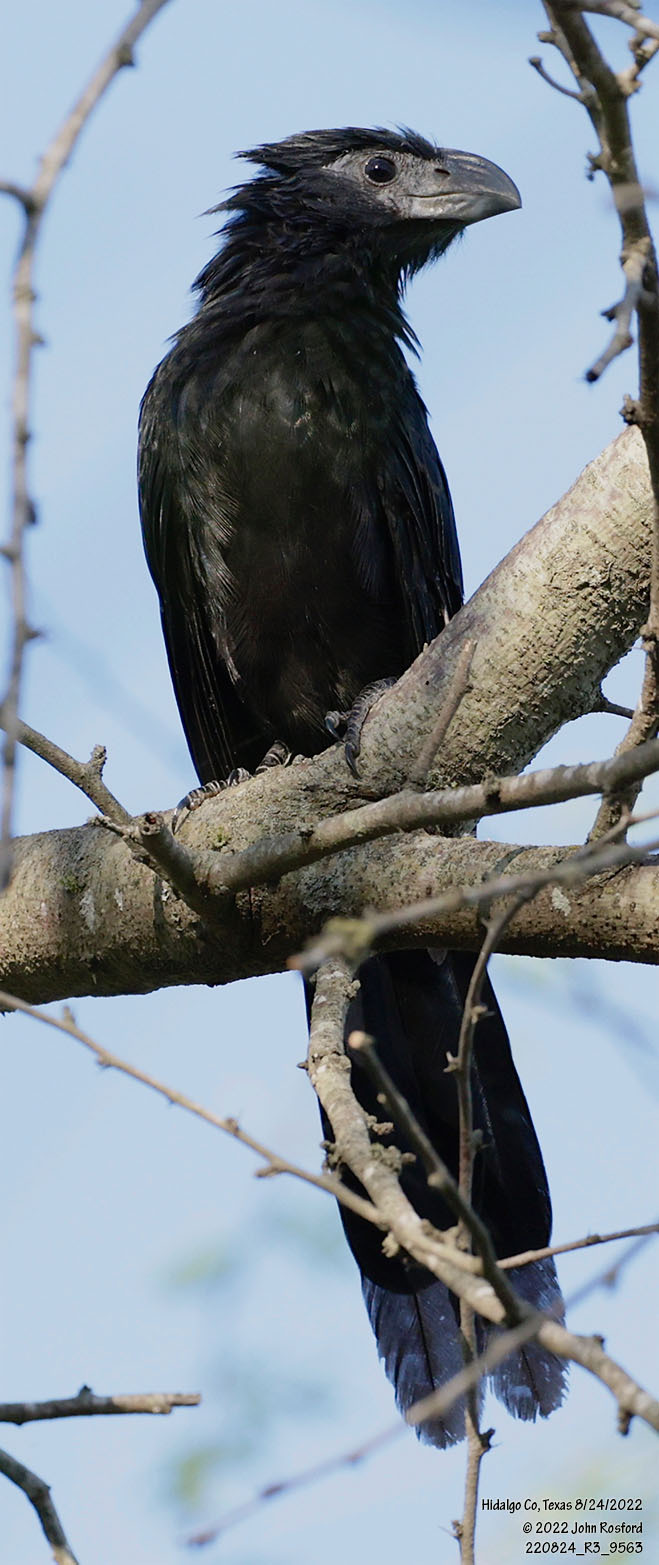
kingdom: Animalia
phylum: Chordata
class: Aves
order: Cuculiformes
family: Cuculidae
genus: Crotophaga
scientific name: Crotophaga sulcirostris
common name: Groove-billed ani
